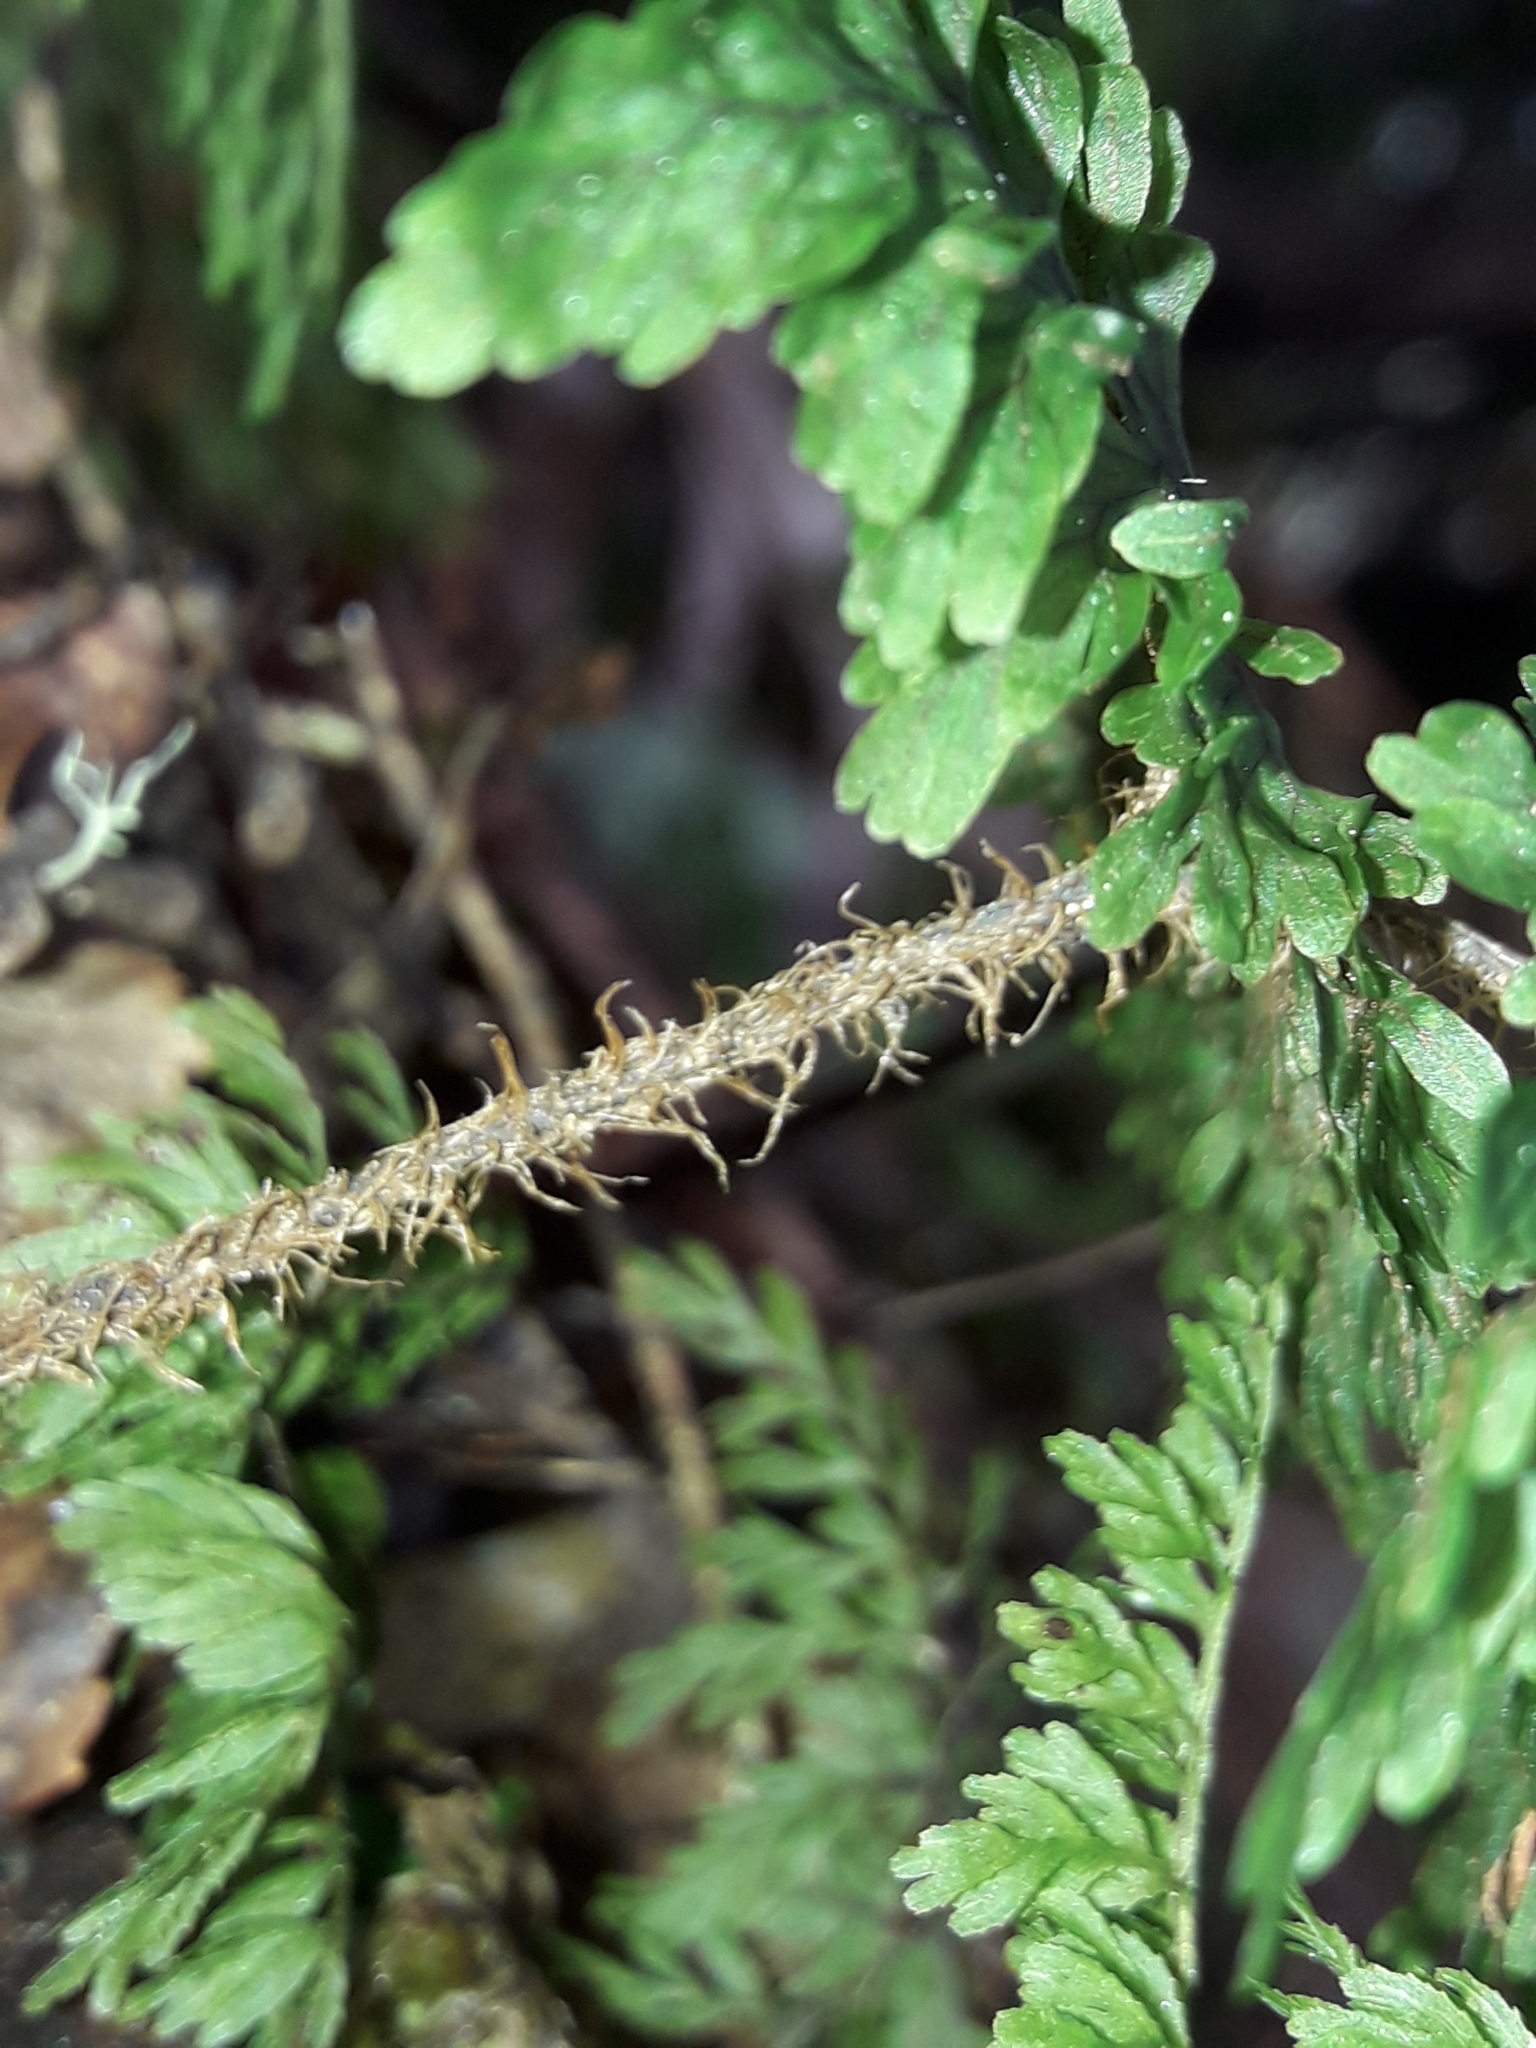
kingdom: Plantae
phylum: Tracheophyta
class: Polypodiopsida
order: Hymenophyllales
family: Hymenophyllaceae
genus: Hymenophyllum
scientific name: Hymenophyllum scabrum
